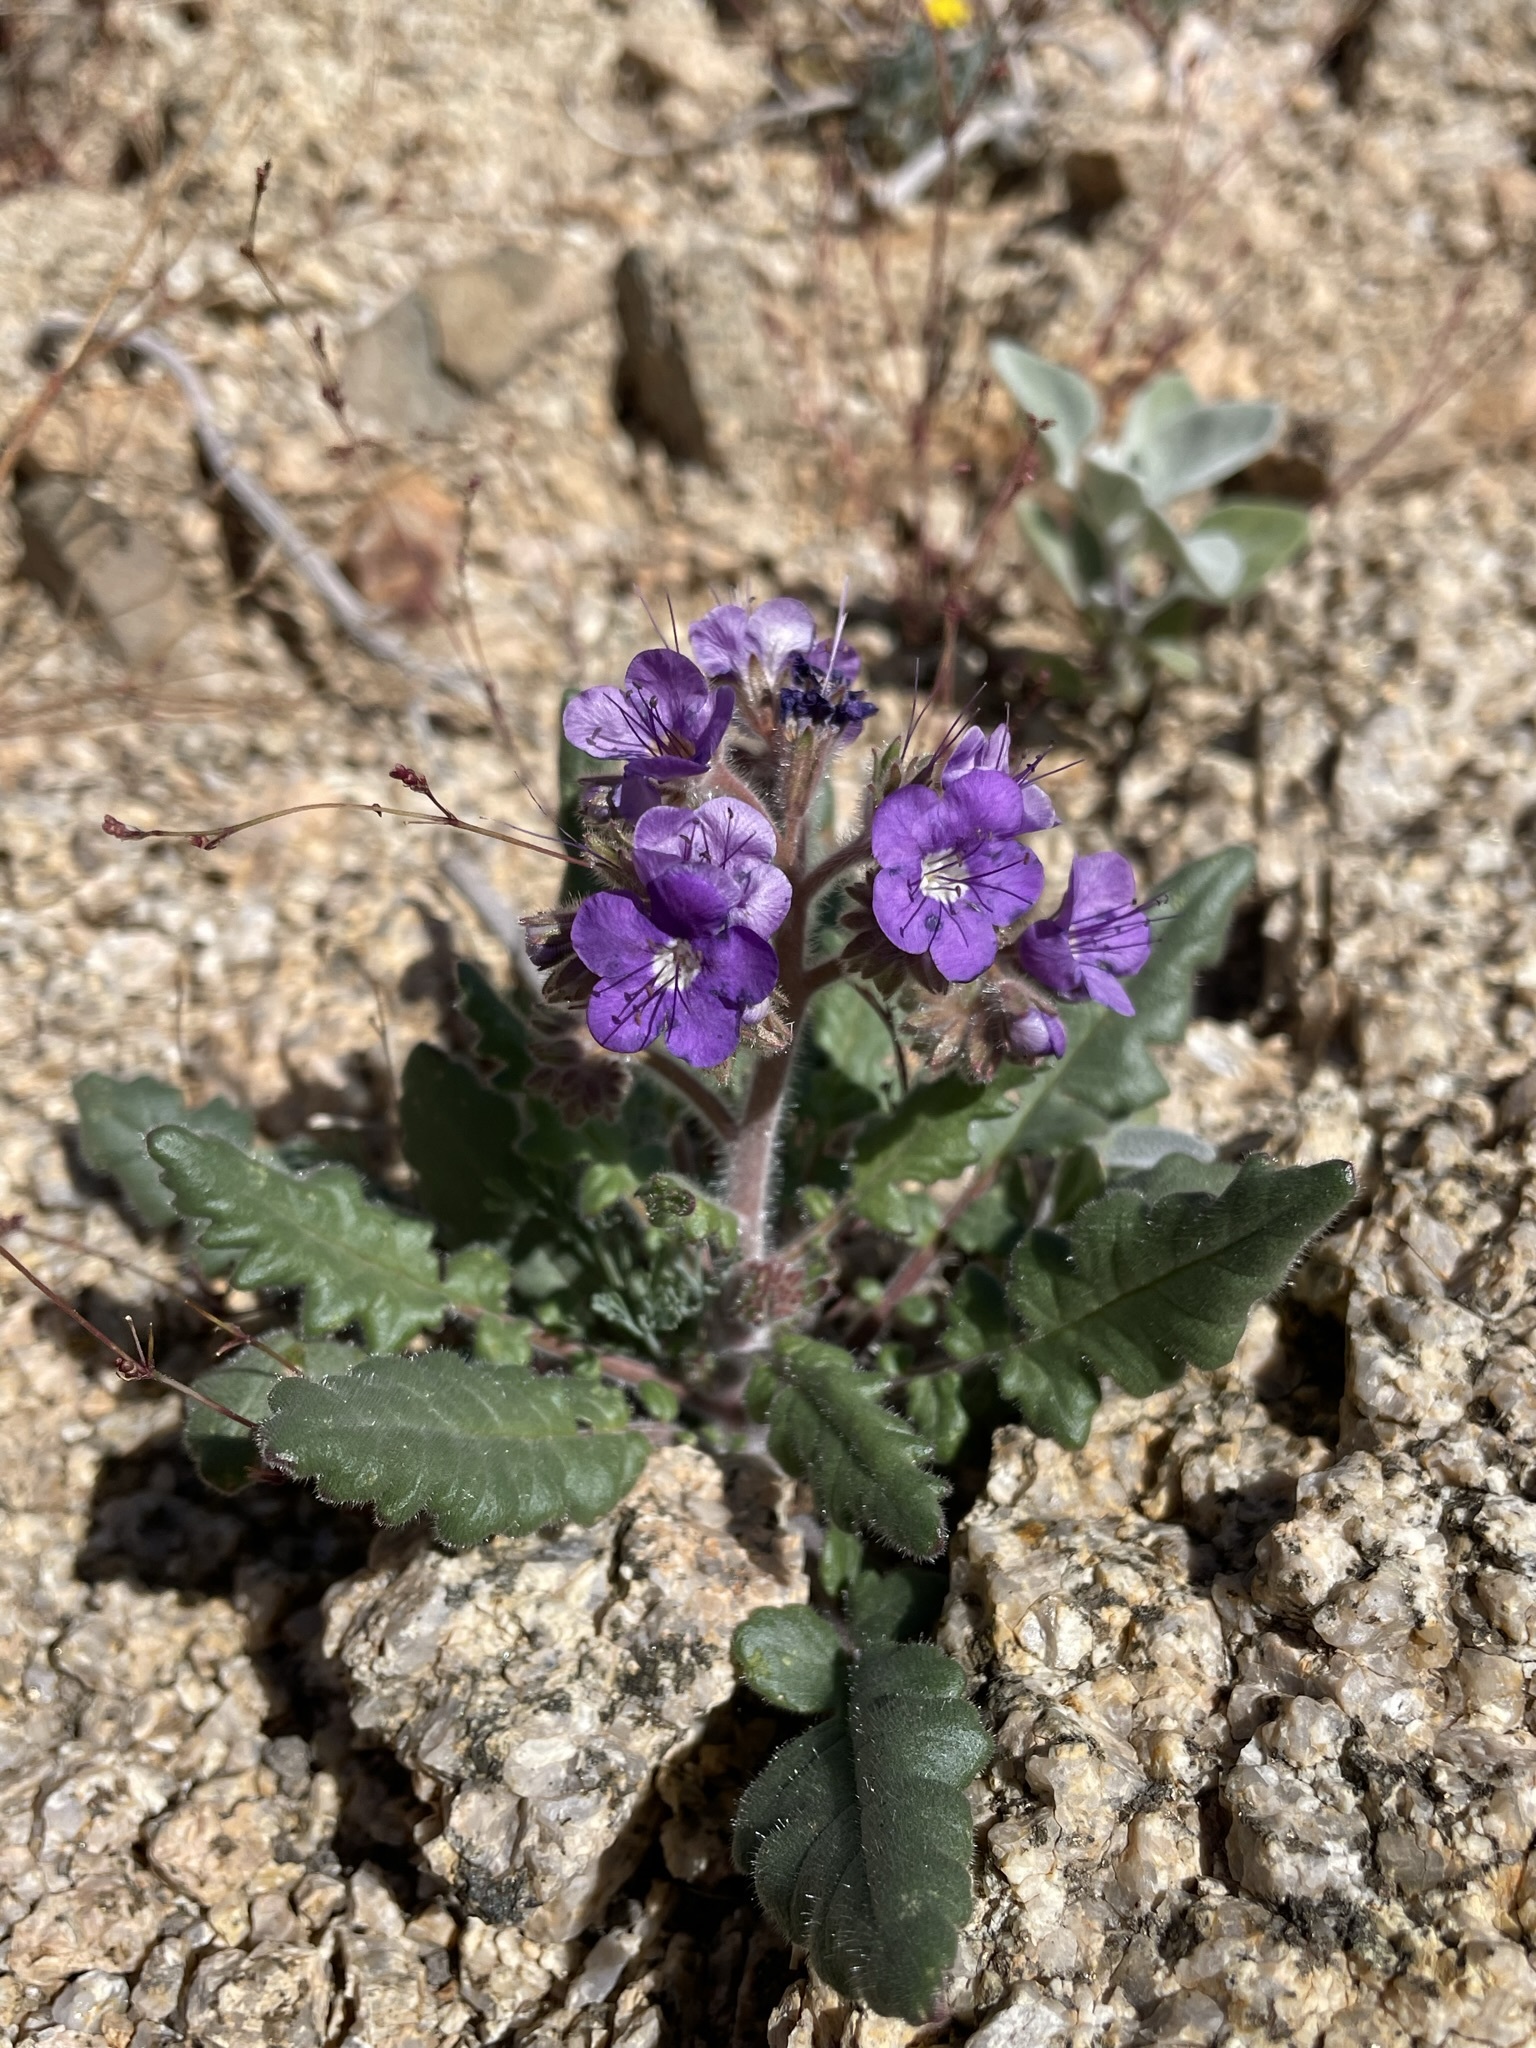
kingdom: Plantae
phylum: Tracheophyta
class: Magnoliopsida
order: Boraginales
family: Hydrophyllaceae
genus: Phacelia
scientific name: Phacelia crenulata
